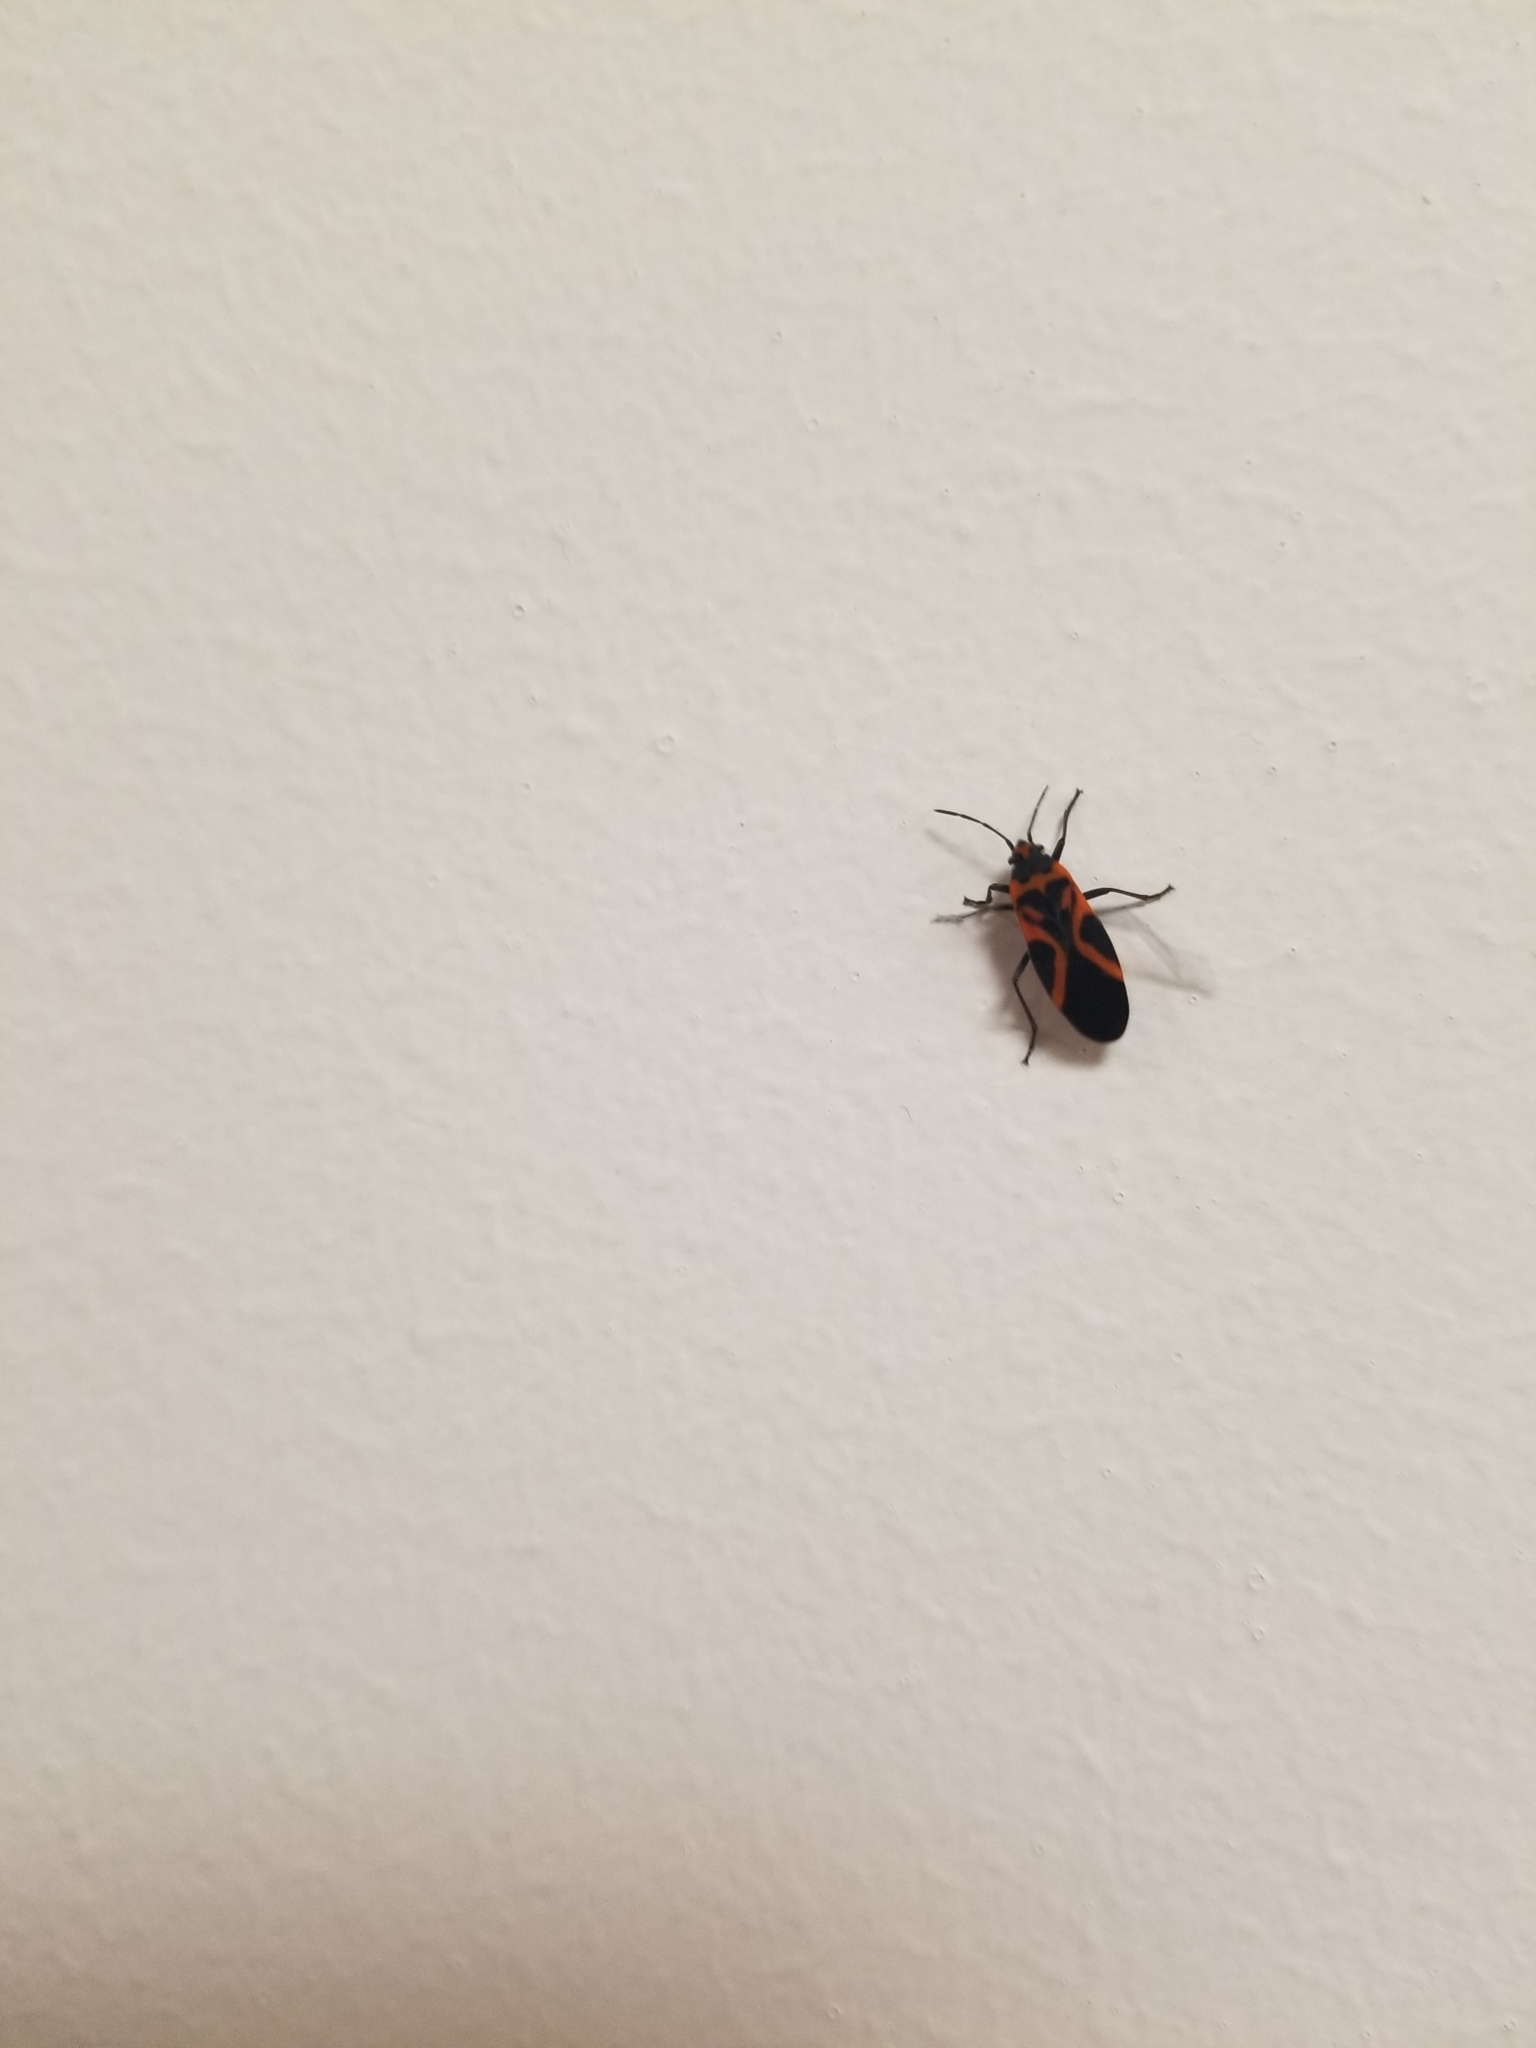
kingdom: Animalia
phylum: Arthropoda
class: Insecta
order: Hemiptera
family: Lygaeidae
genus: Lygaeus
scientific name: Lygaeus turcicus
